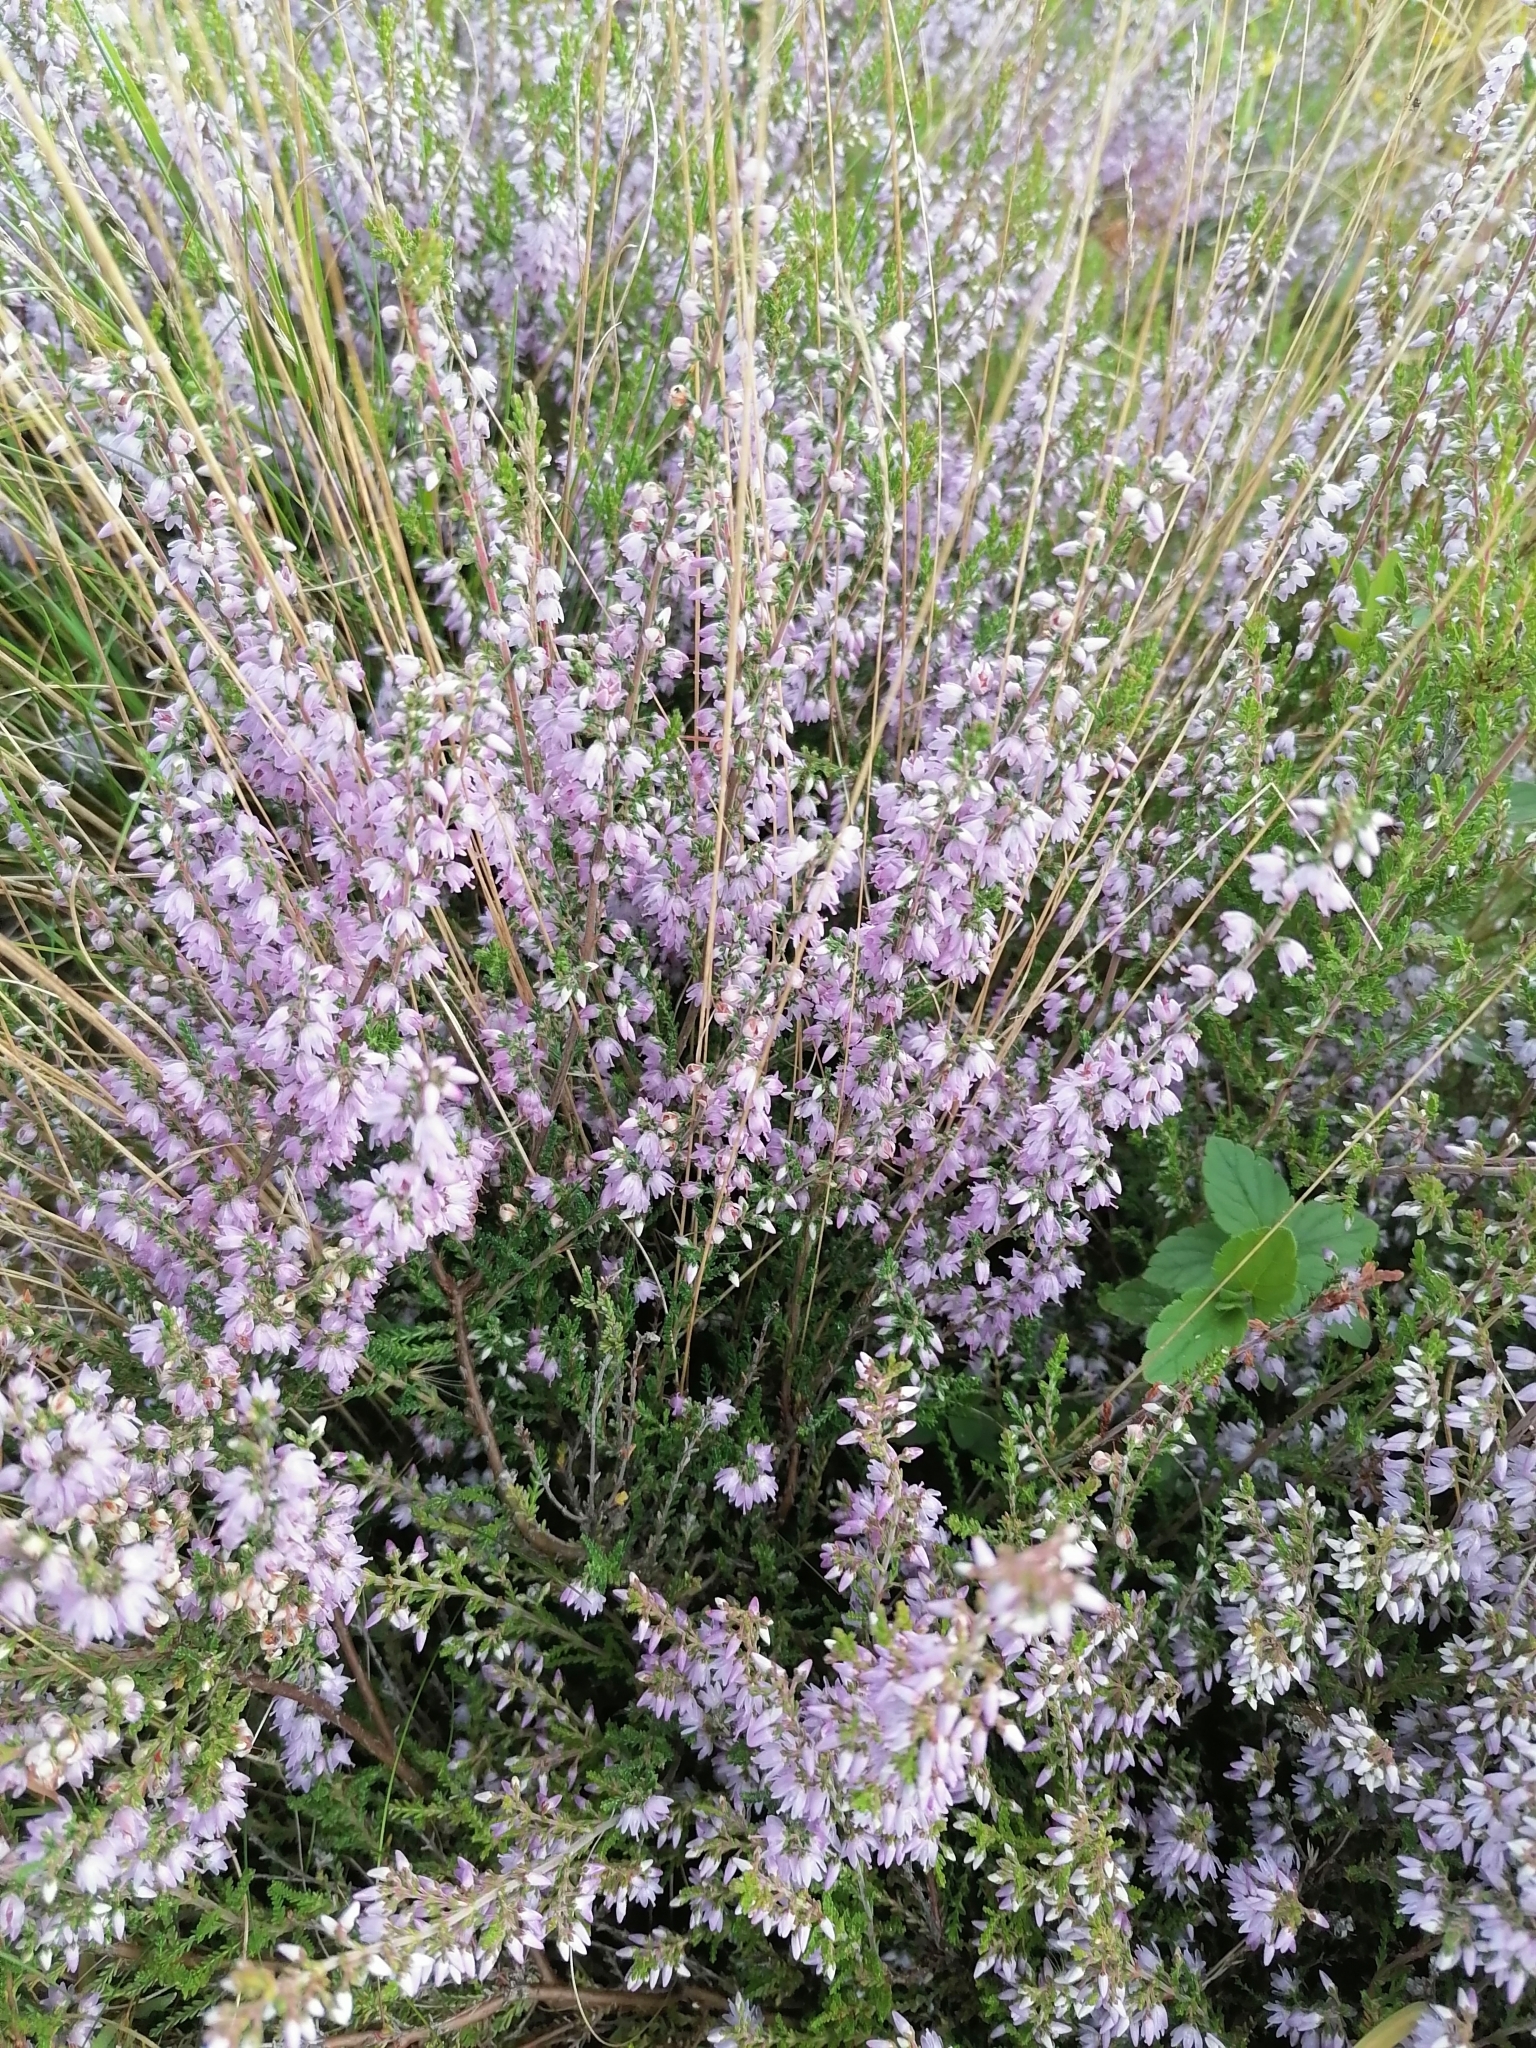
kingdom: Plantae
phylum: Tracheophyta
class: Magnoliopsida
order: Ericales
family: Ericaceae
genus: Calluna
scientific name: Calluna vulgaris
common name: Heather
